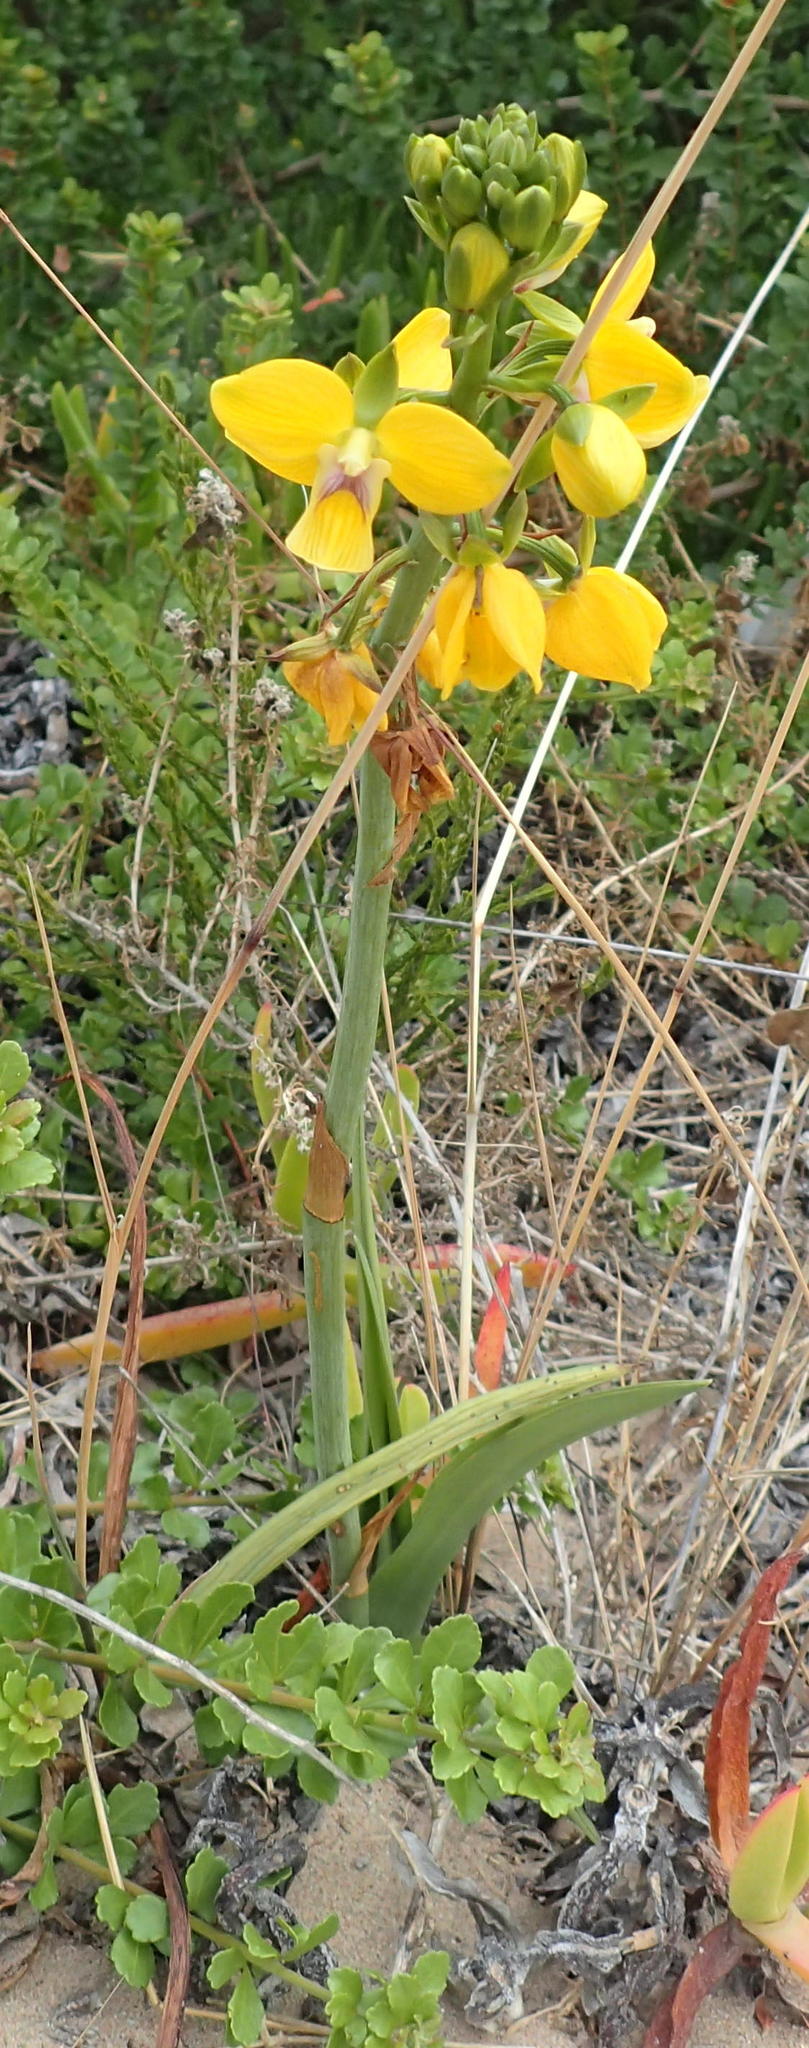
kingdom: Plantae
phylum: Tracheophyta
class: Liliopsida
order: Asparagales
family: Orchidaceae
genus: Eulophia
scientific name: Eulophia speciosa
